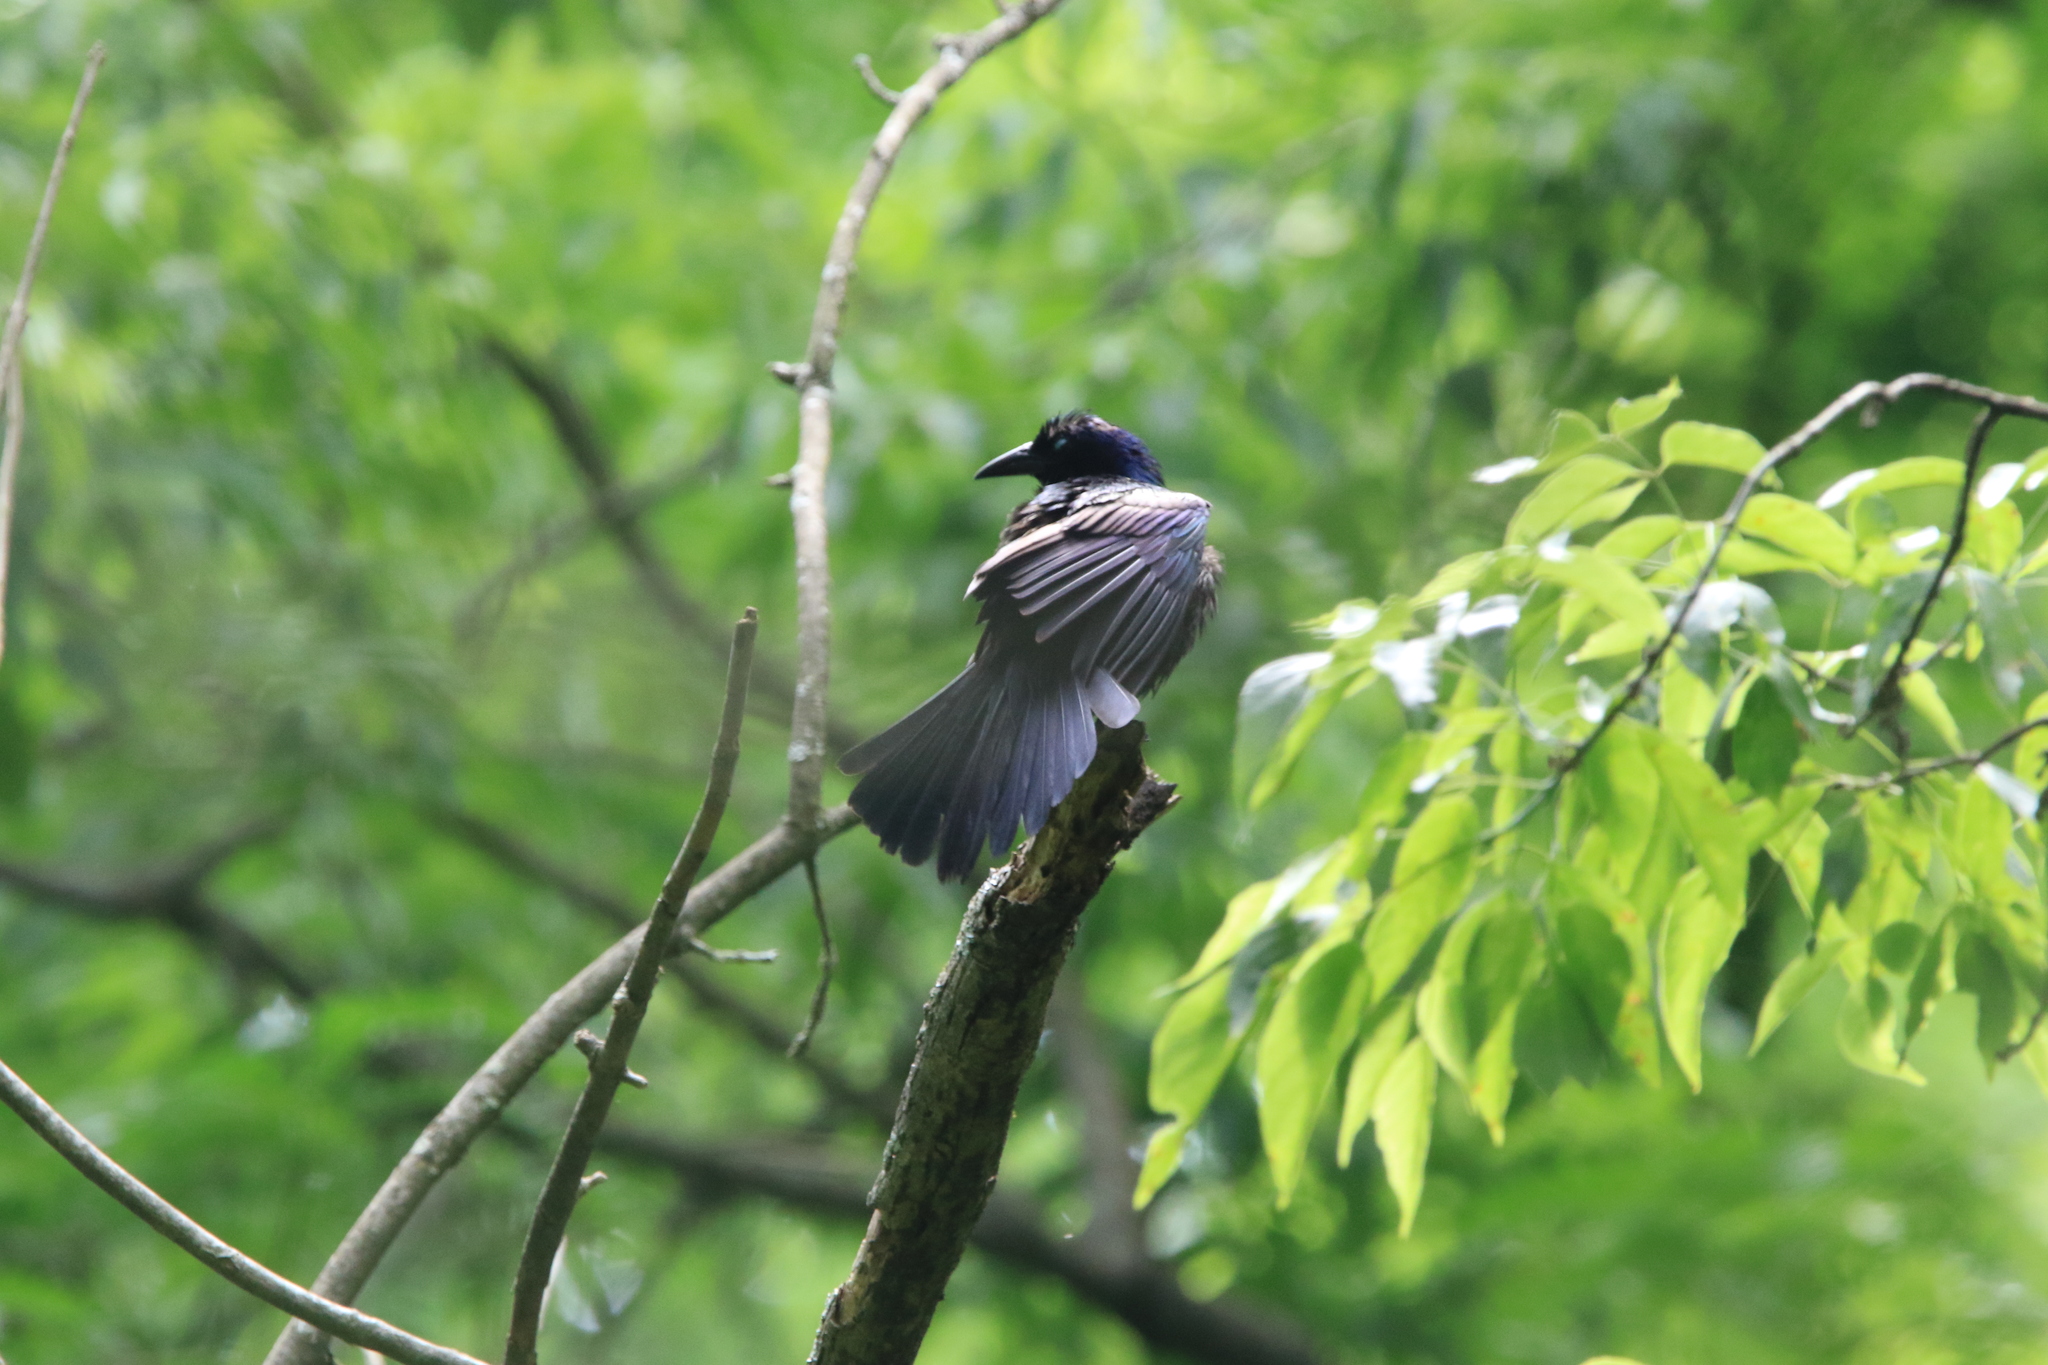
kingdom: Animalia
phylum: Chordata
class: Aves
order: Passeriformes
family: Icteridae
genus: Quiscalus
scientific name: Quiscalus quiscula
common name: Common grackle
